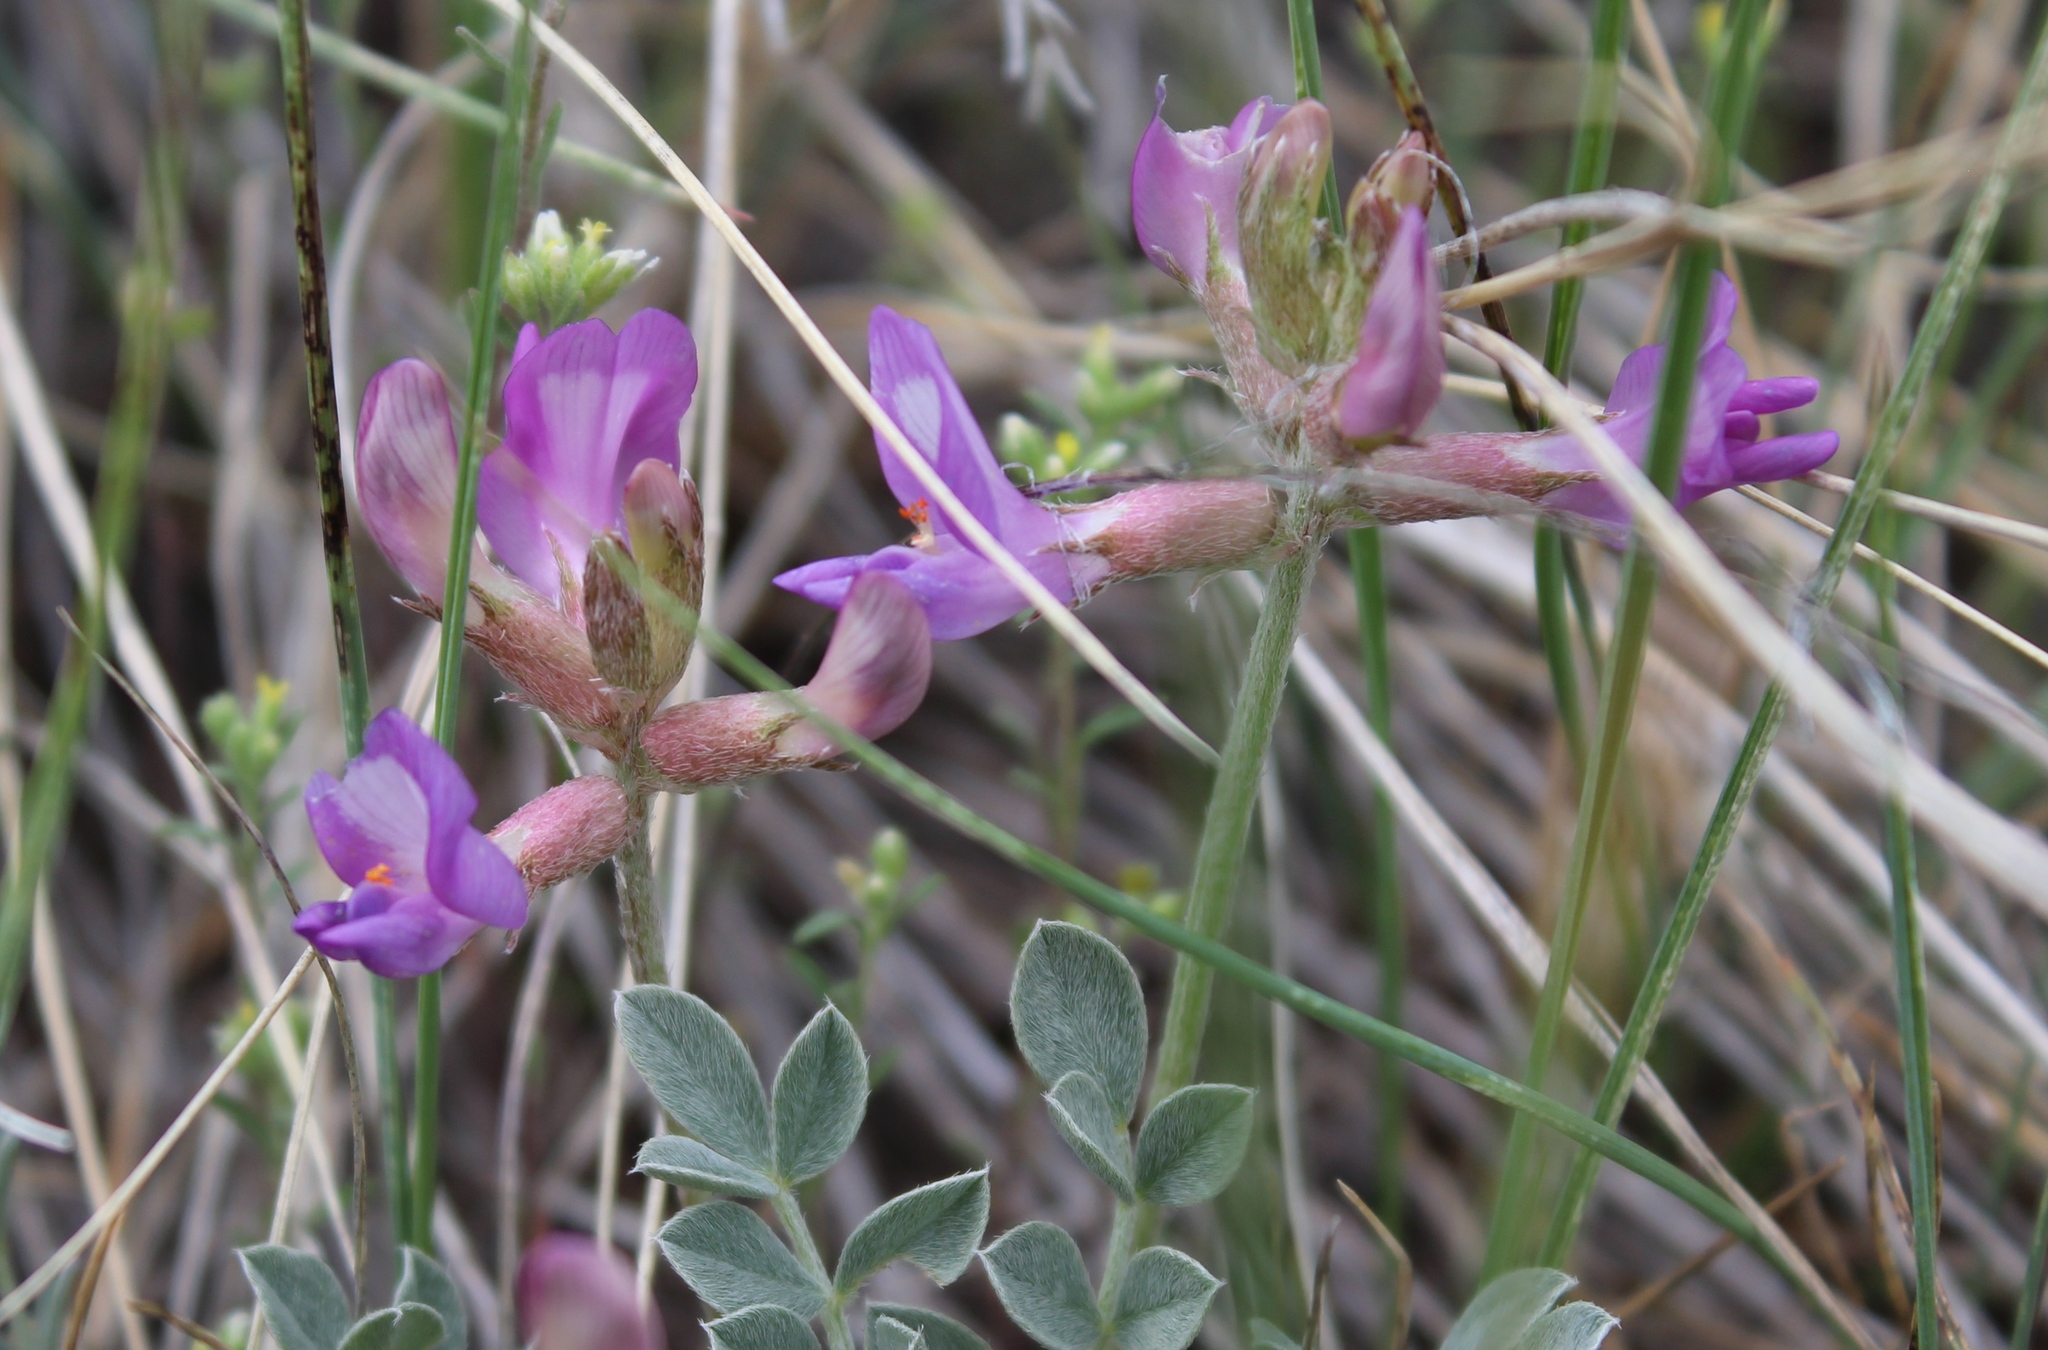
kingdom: Plantae
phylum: Tracheophyta
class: Magnoliopsida
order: Fabales
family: Fabaceae
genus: Astragalus
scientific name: Astragalus missouriensis
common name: Missouri milk-vetch
